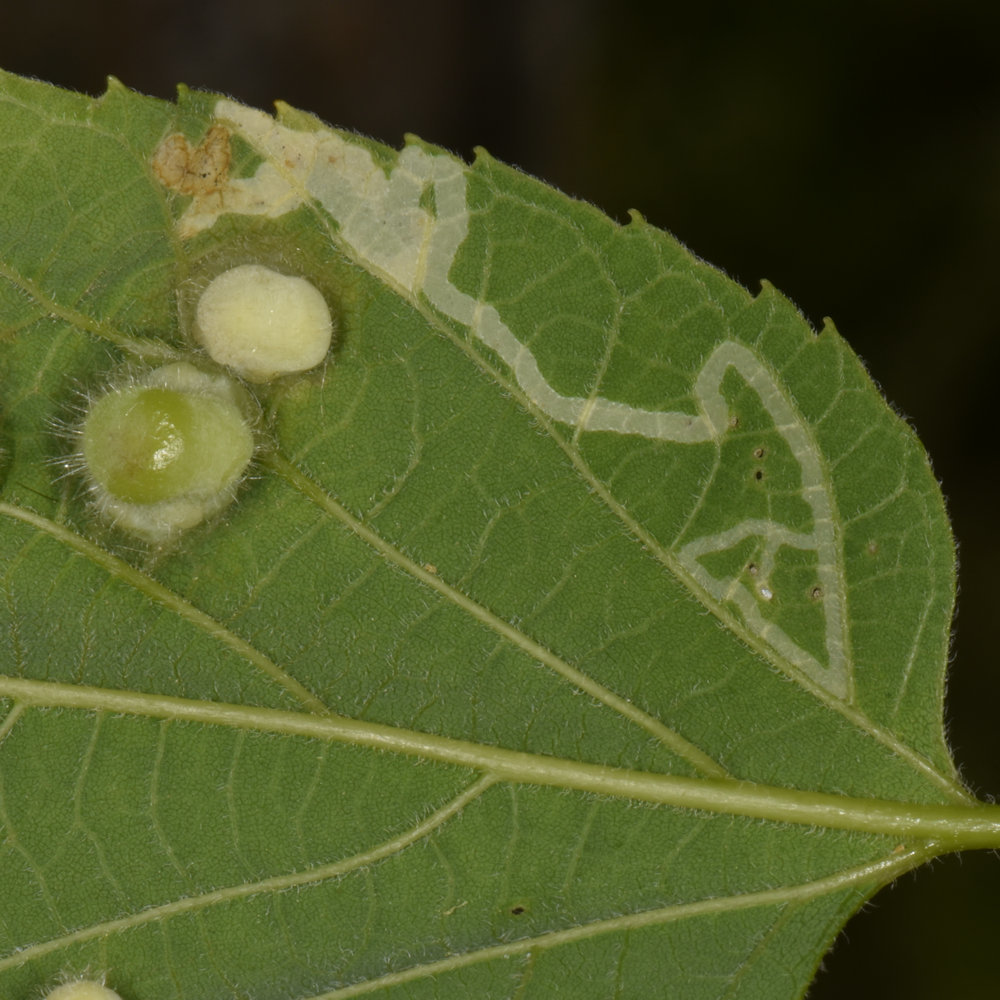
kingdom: Animalia
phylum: Arthropoda
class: Insecta
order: Diptera
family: Agromyzidae
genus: Agromyza
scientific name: Agromyza aristata
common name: Elm agromyzid leafminer
